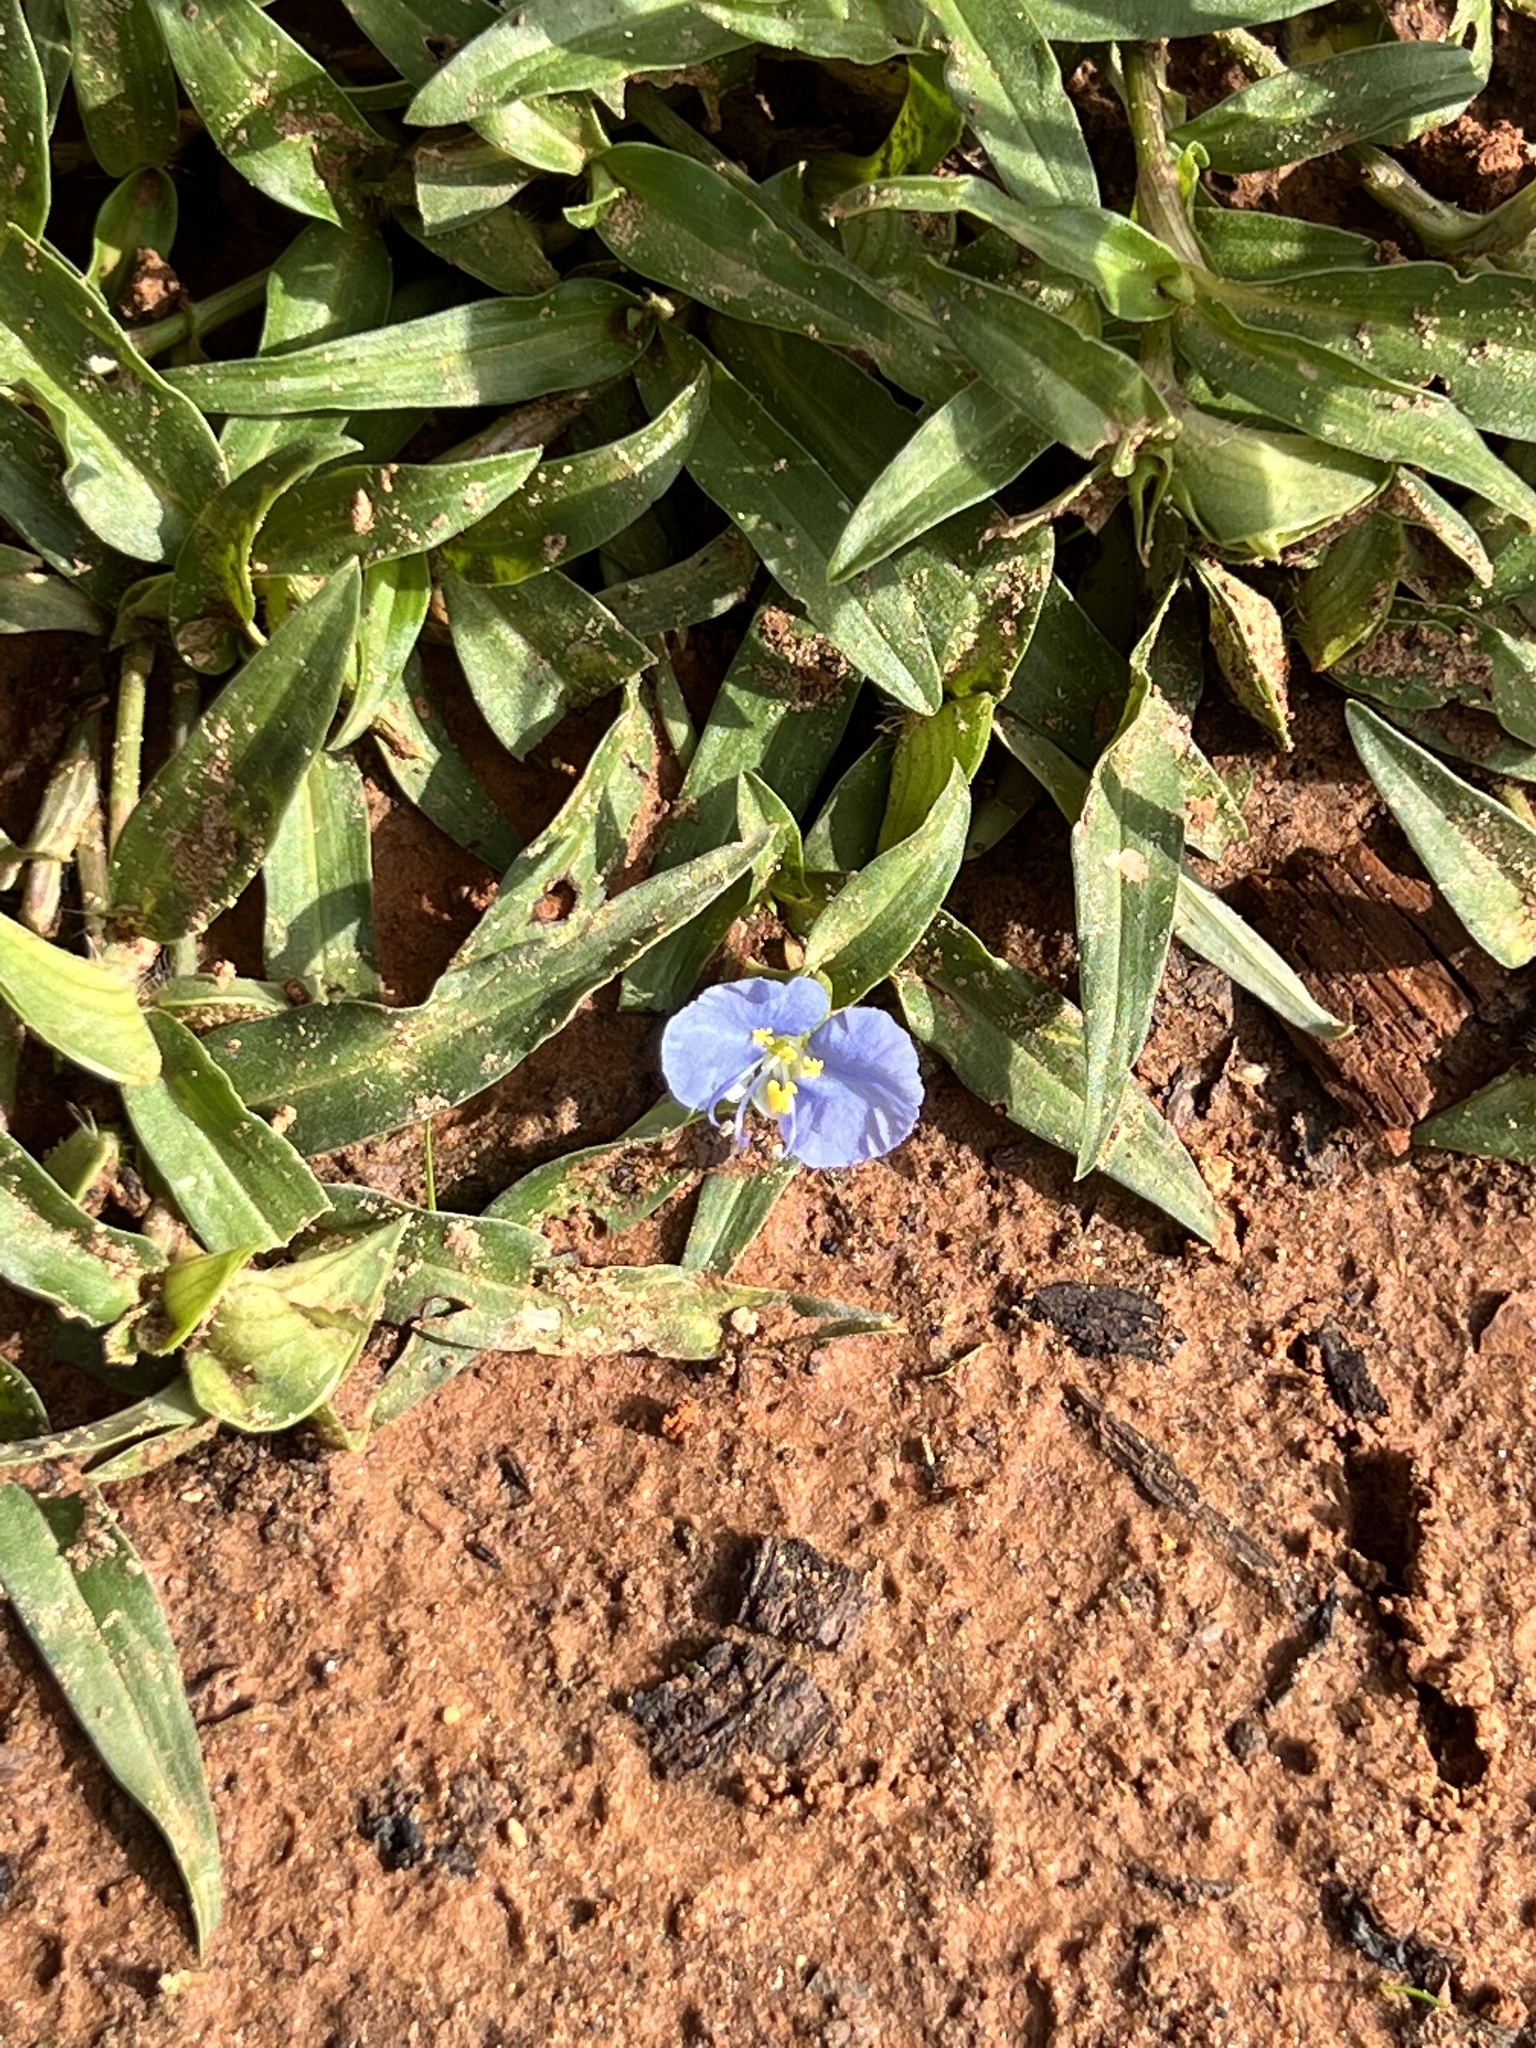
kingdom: Plantae
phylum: Tracheophyta
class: Liliopsida
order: Commelinales
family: Commelinaceae
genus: Commelina
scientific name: Commelina erecta
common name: Blousel blommetjie
